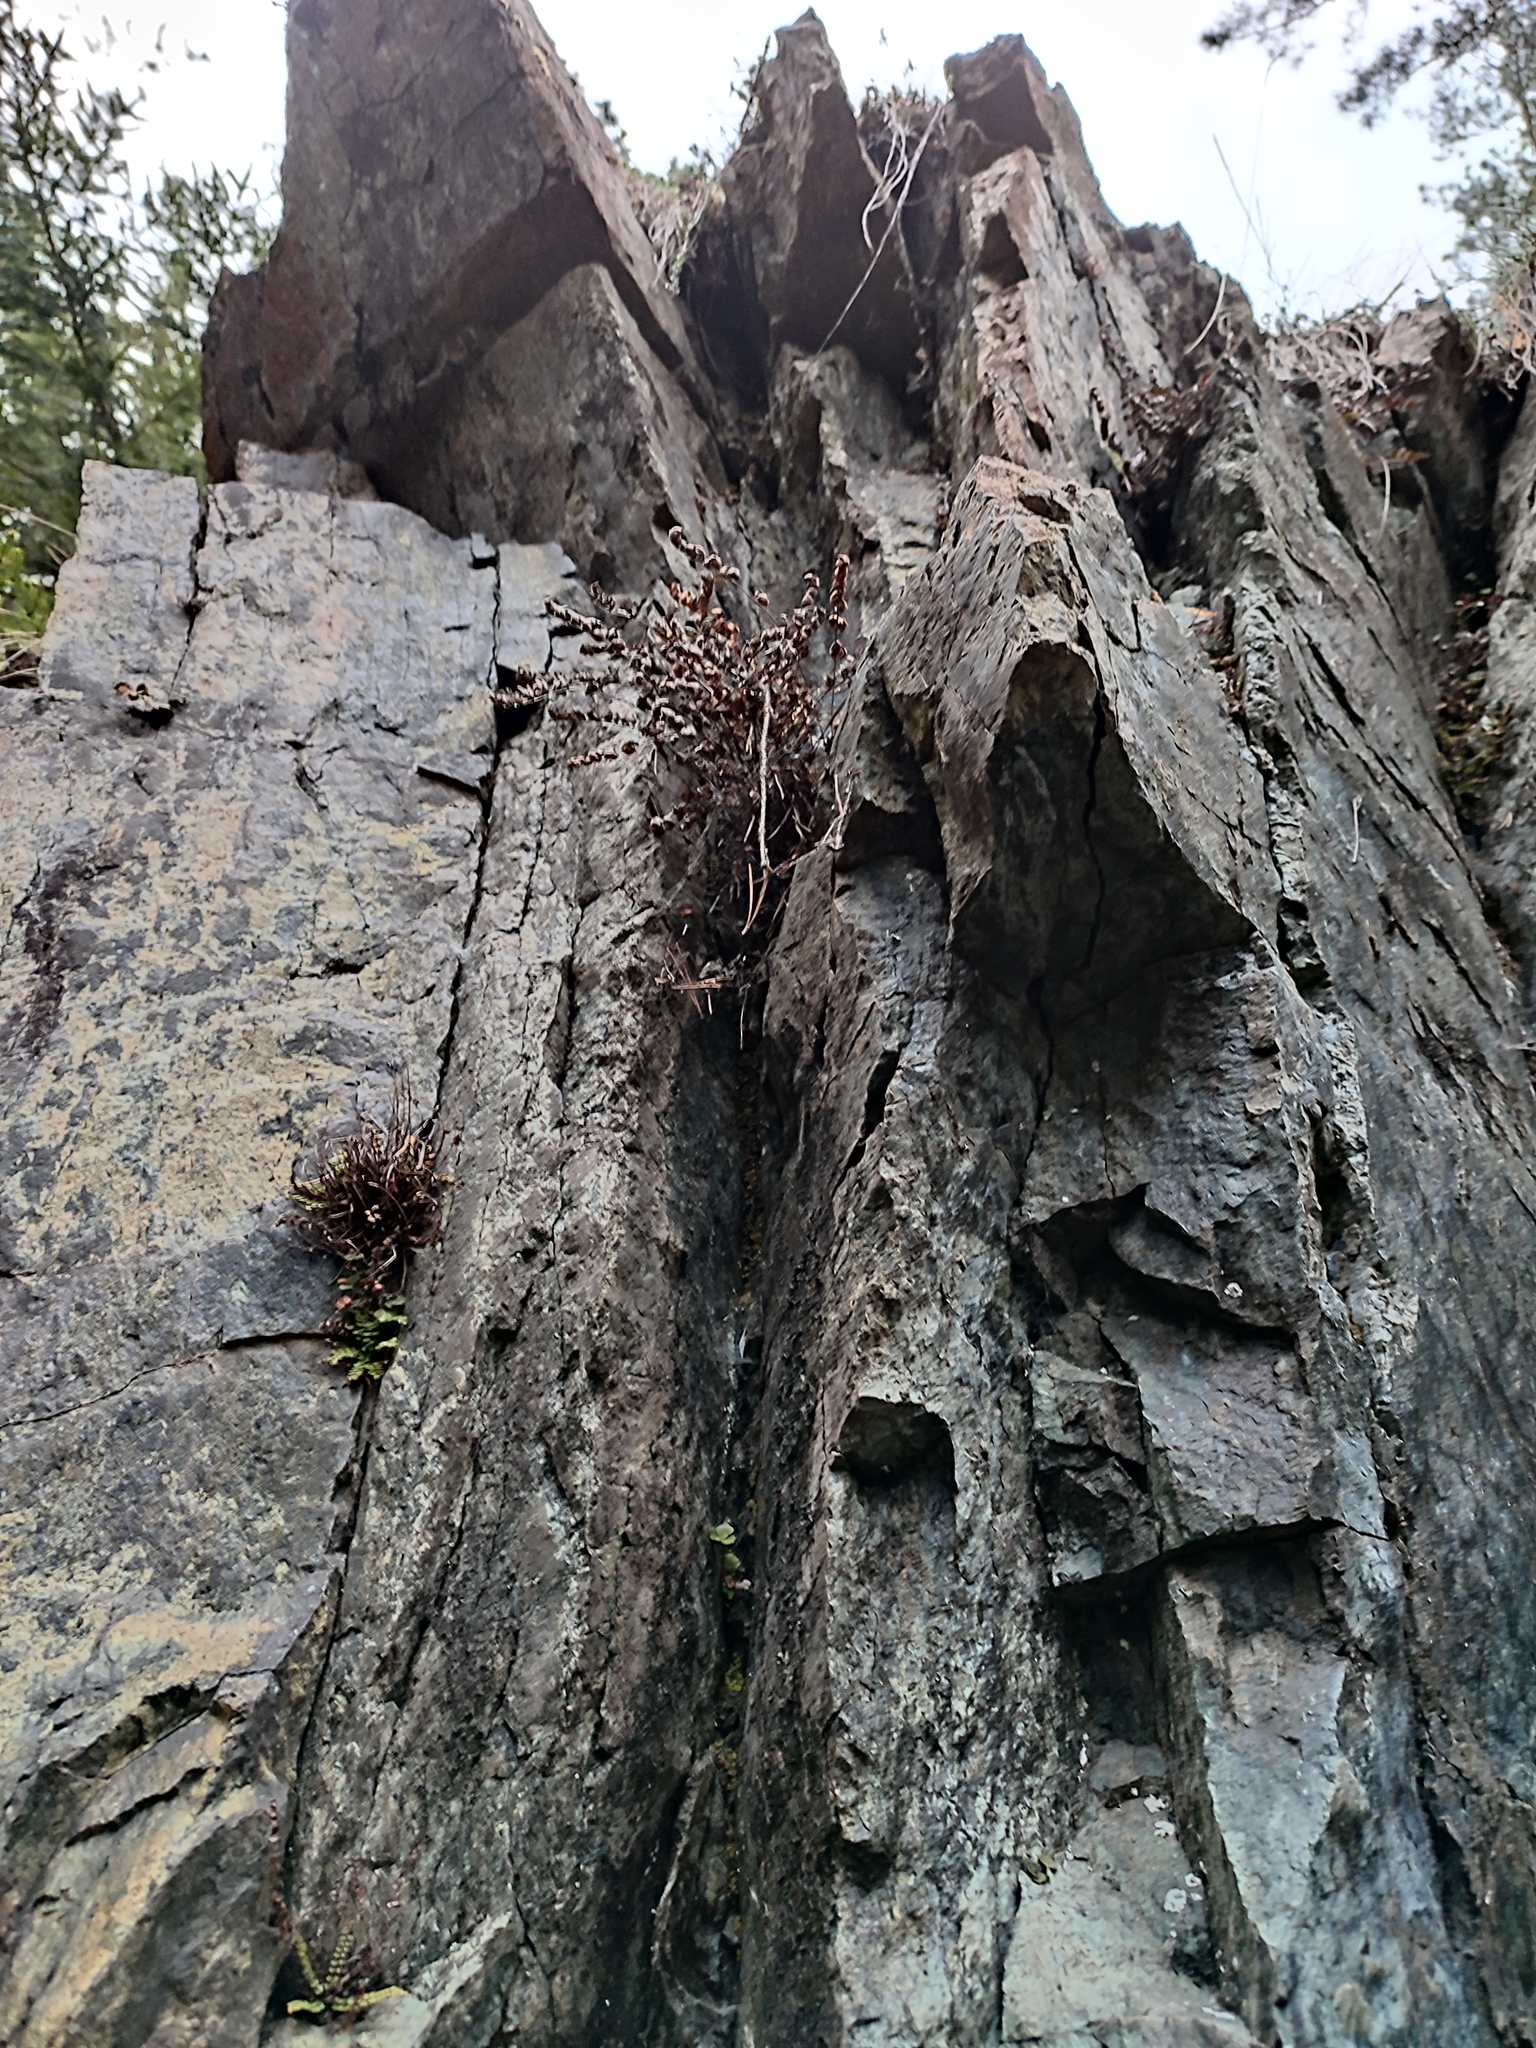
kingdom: Plantae
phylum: Tracheophyta
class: Polypodiopsida
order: Polypodiales
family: Pteridaceae
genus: Paragymnopteris
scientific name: Paragymnopteris marantae
